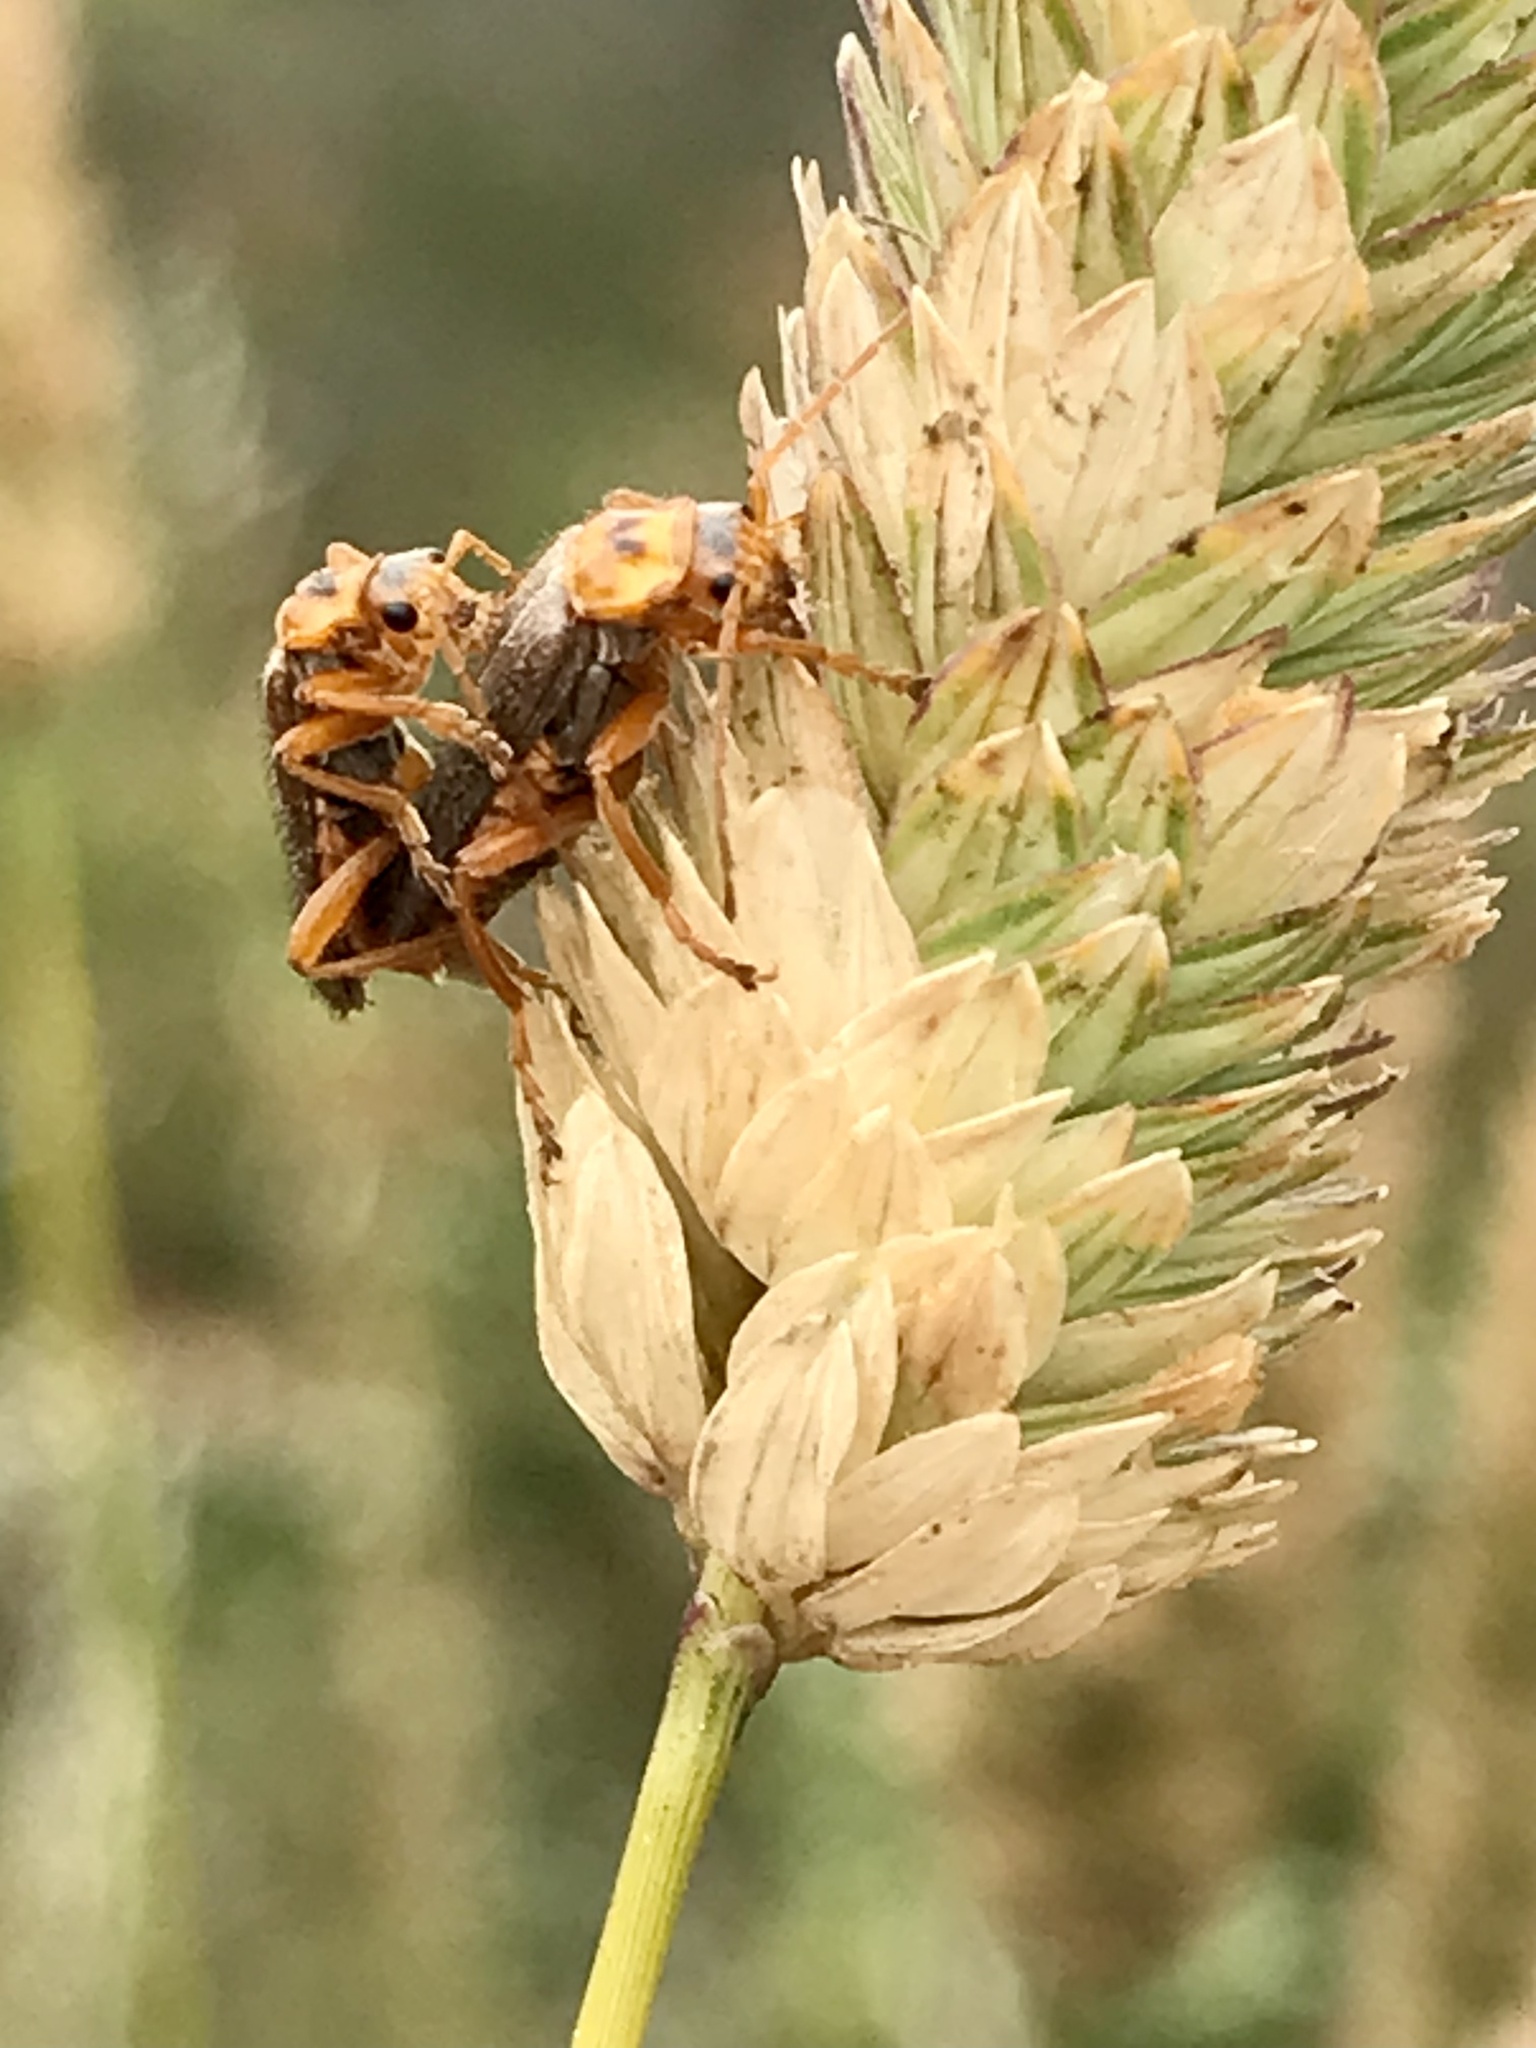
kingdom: Animalia
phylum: Arthropoda
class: Insecta
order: Coleoptera
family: Cantharidae
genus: Cultellunguis
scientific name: Cultellunguis americanus
